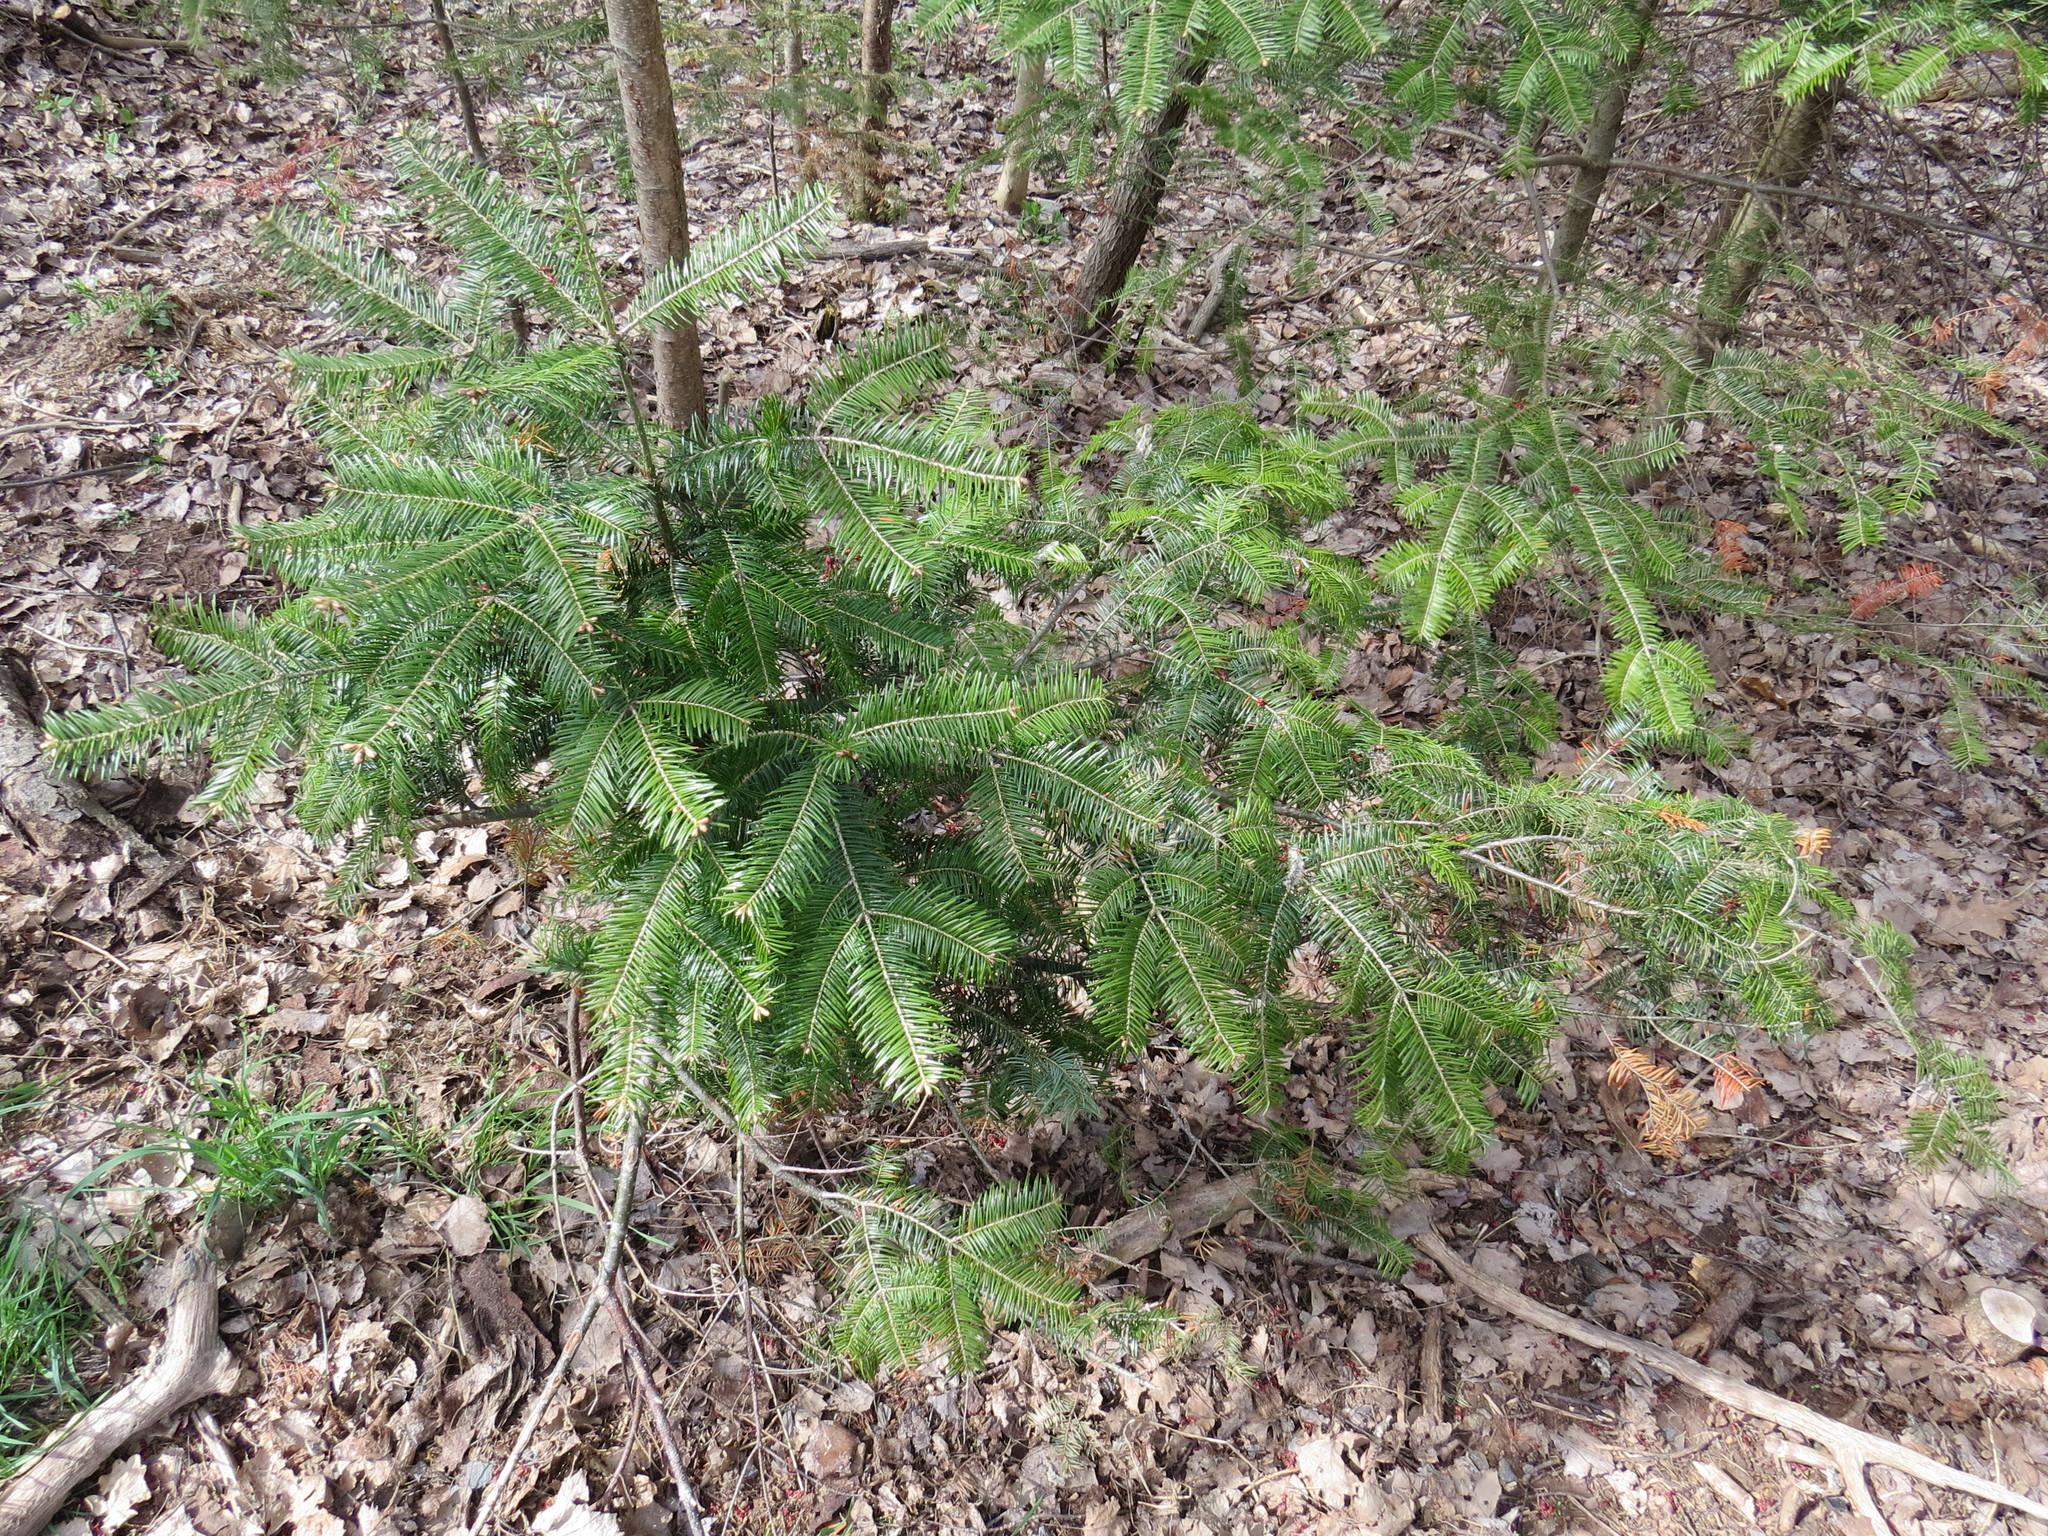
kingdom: Plantae
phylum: Tracheophyta
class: Pinopsida
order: Pinales
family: Pinaceae
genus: Abies
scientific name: Abies balsamea
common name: Balsam fir
